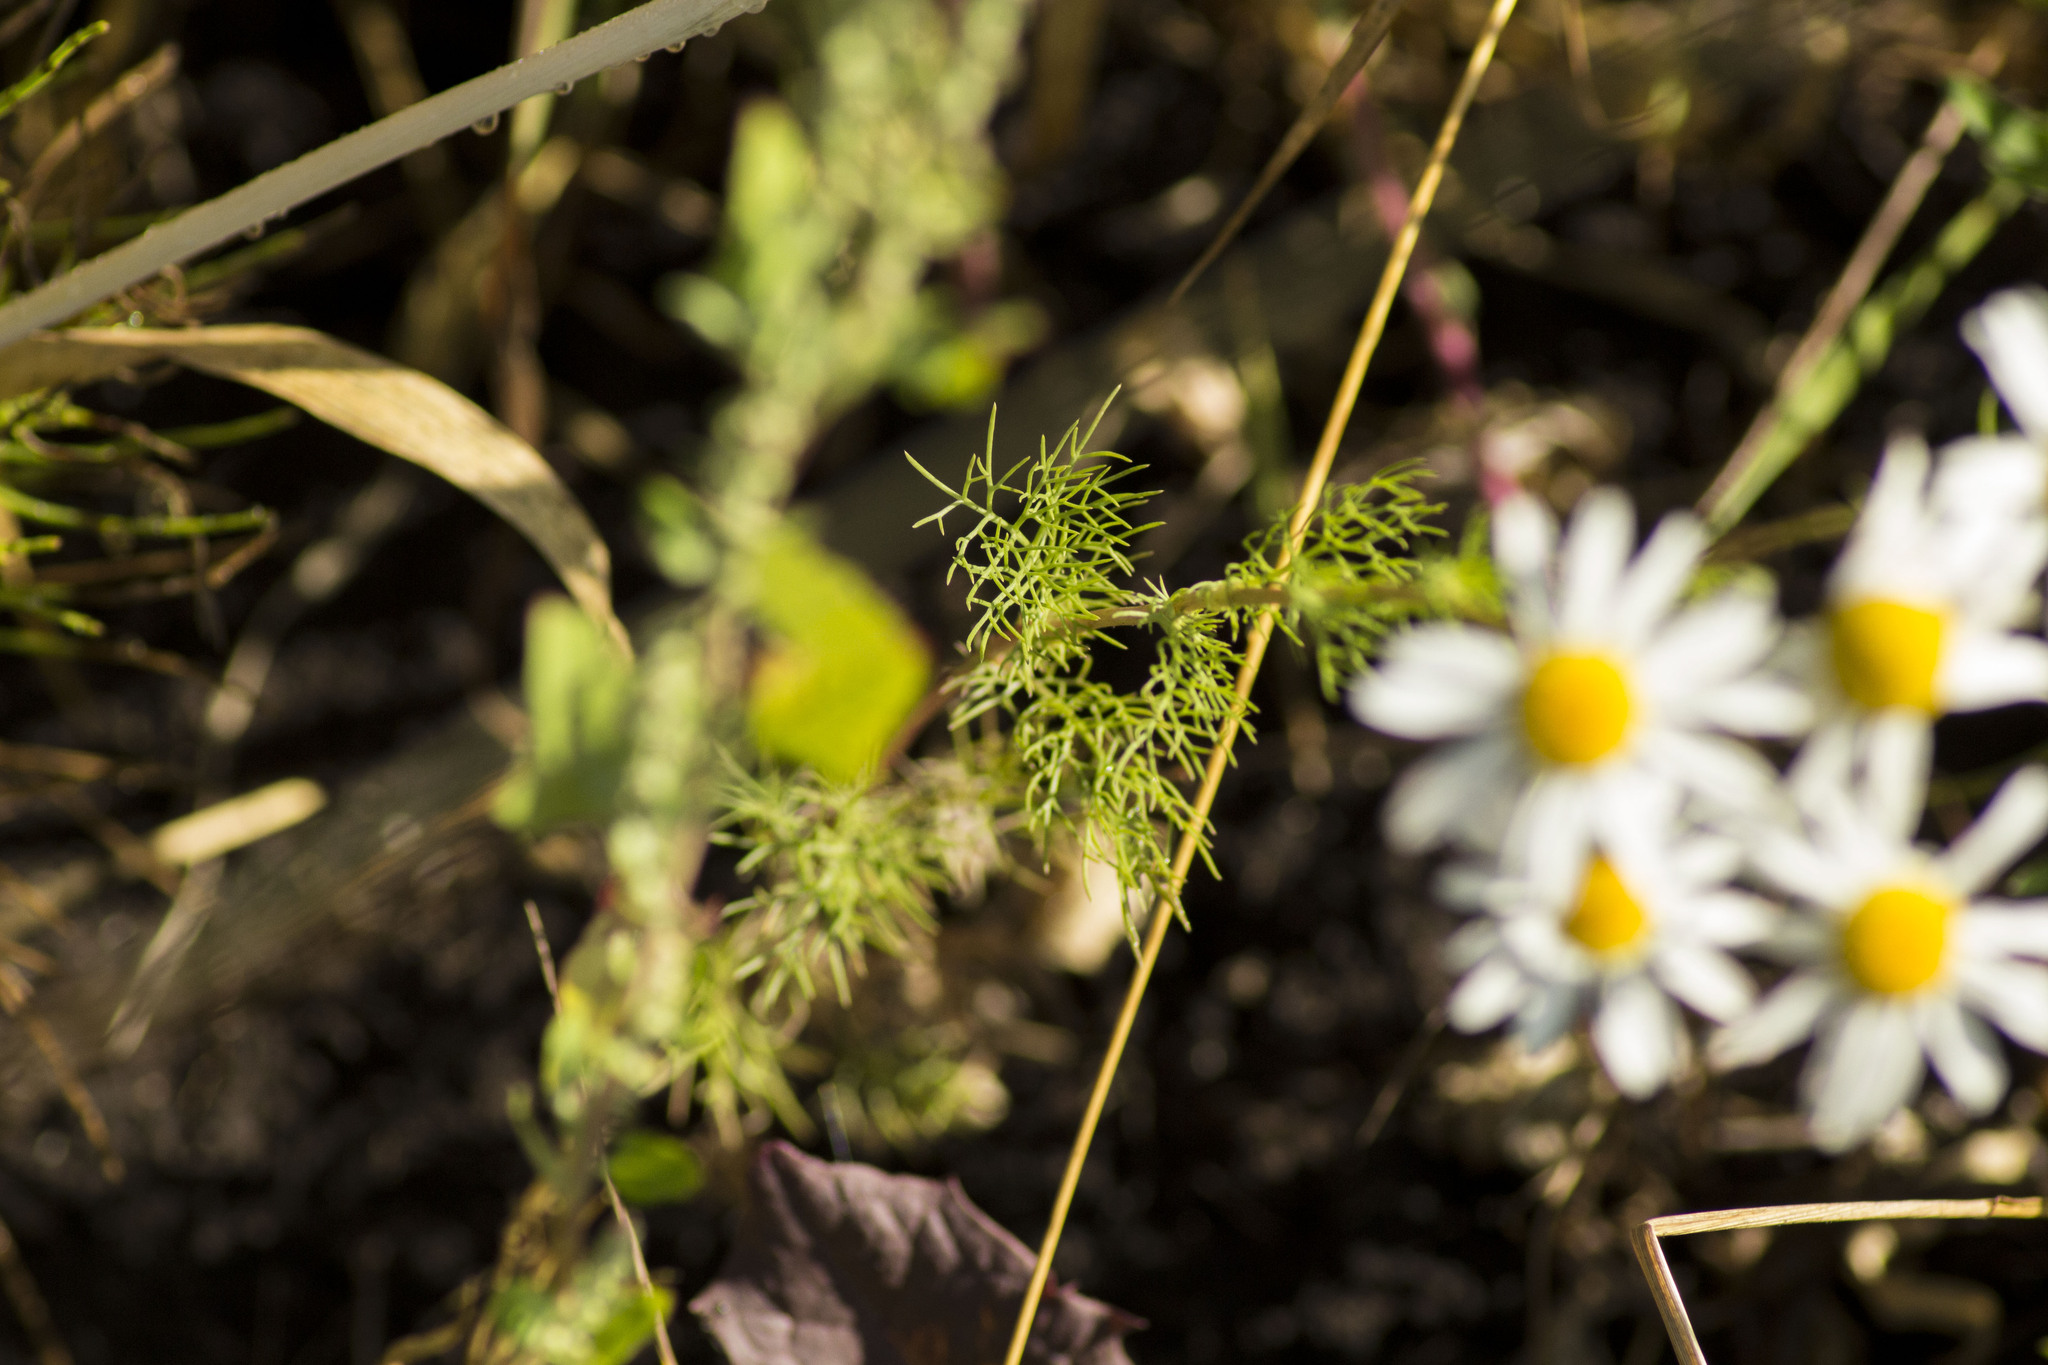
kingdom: Plantae
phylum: Tracheophyta
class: Magnoliopsida
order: Asterales
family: Asteraceae
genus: Tripleurospermum
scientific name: Tripleurospermum inodorum
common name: Scentless mayweed
